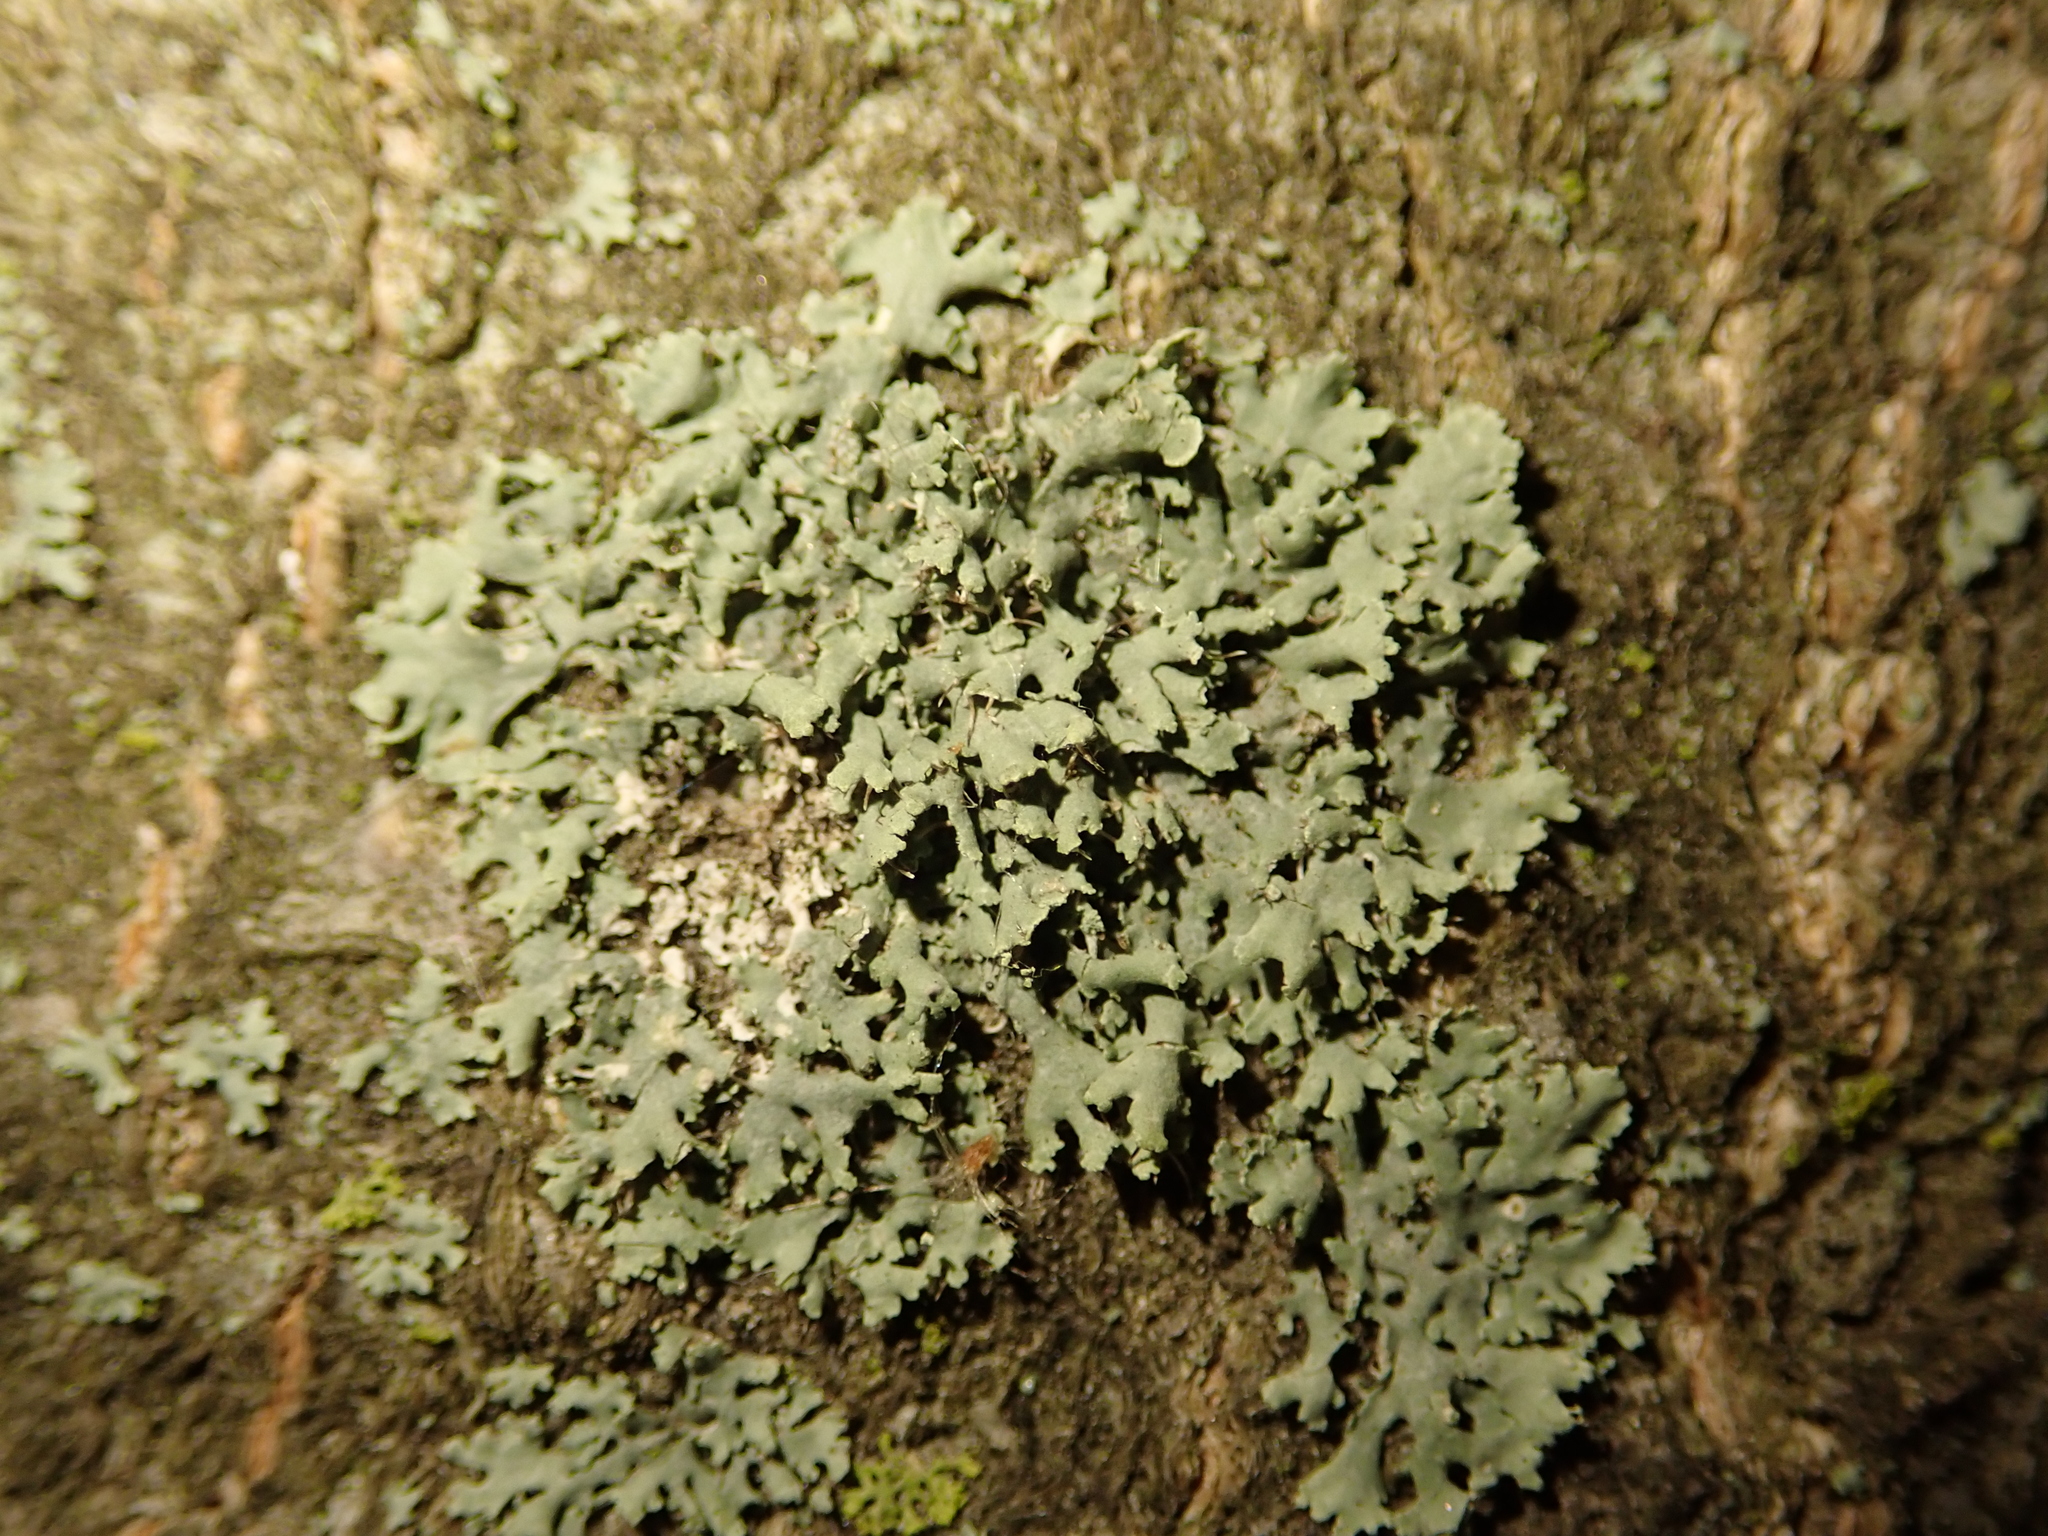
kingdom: Fungi
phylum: Ascomycota
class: Lecanoromycetes
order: Caliciales
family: Physciaceae
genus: Physcia
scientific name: Physcia tenella
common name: Fringed rosette lichen
